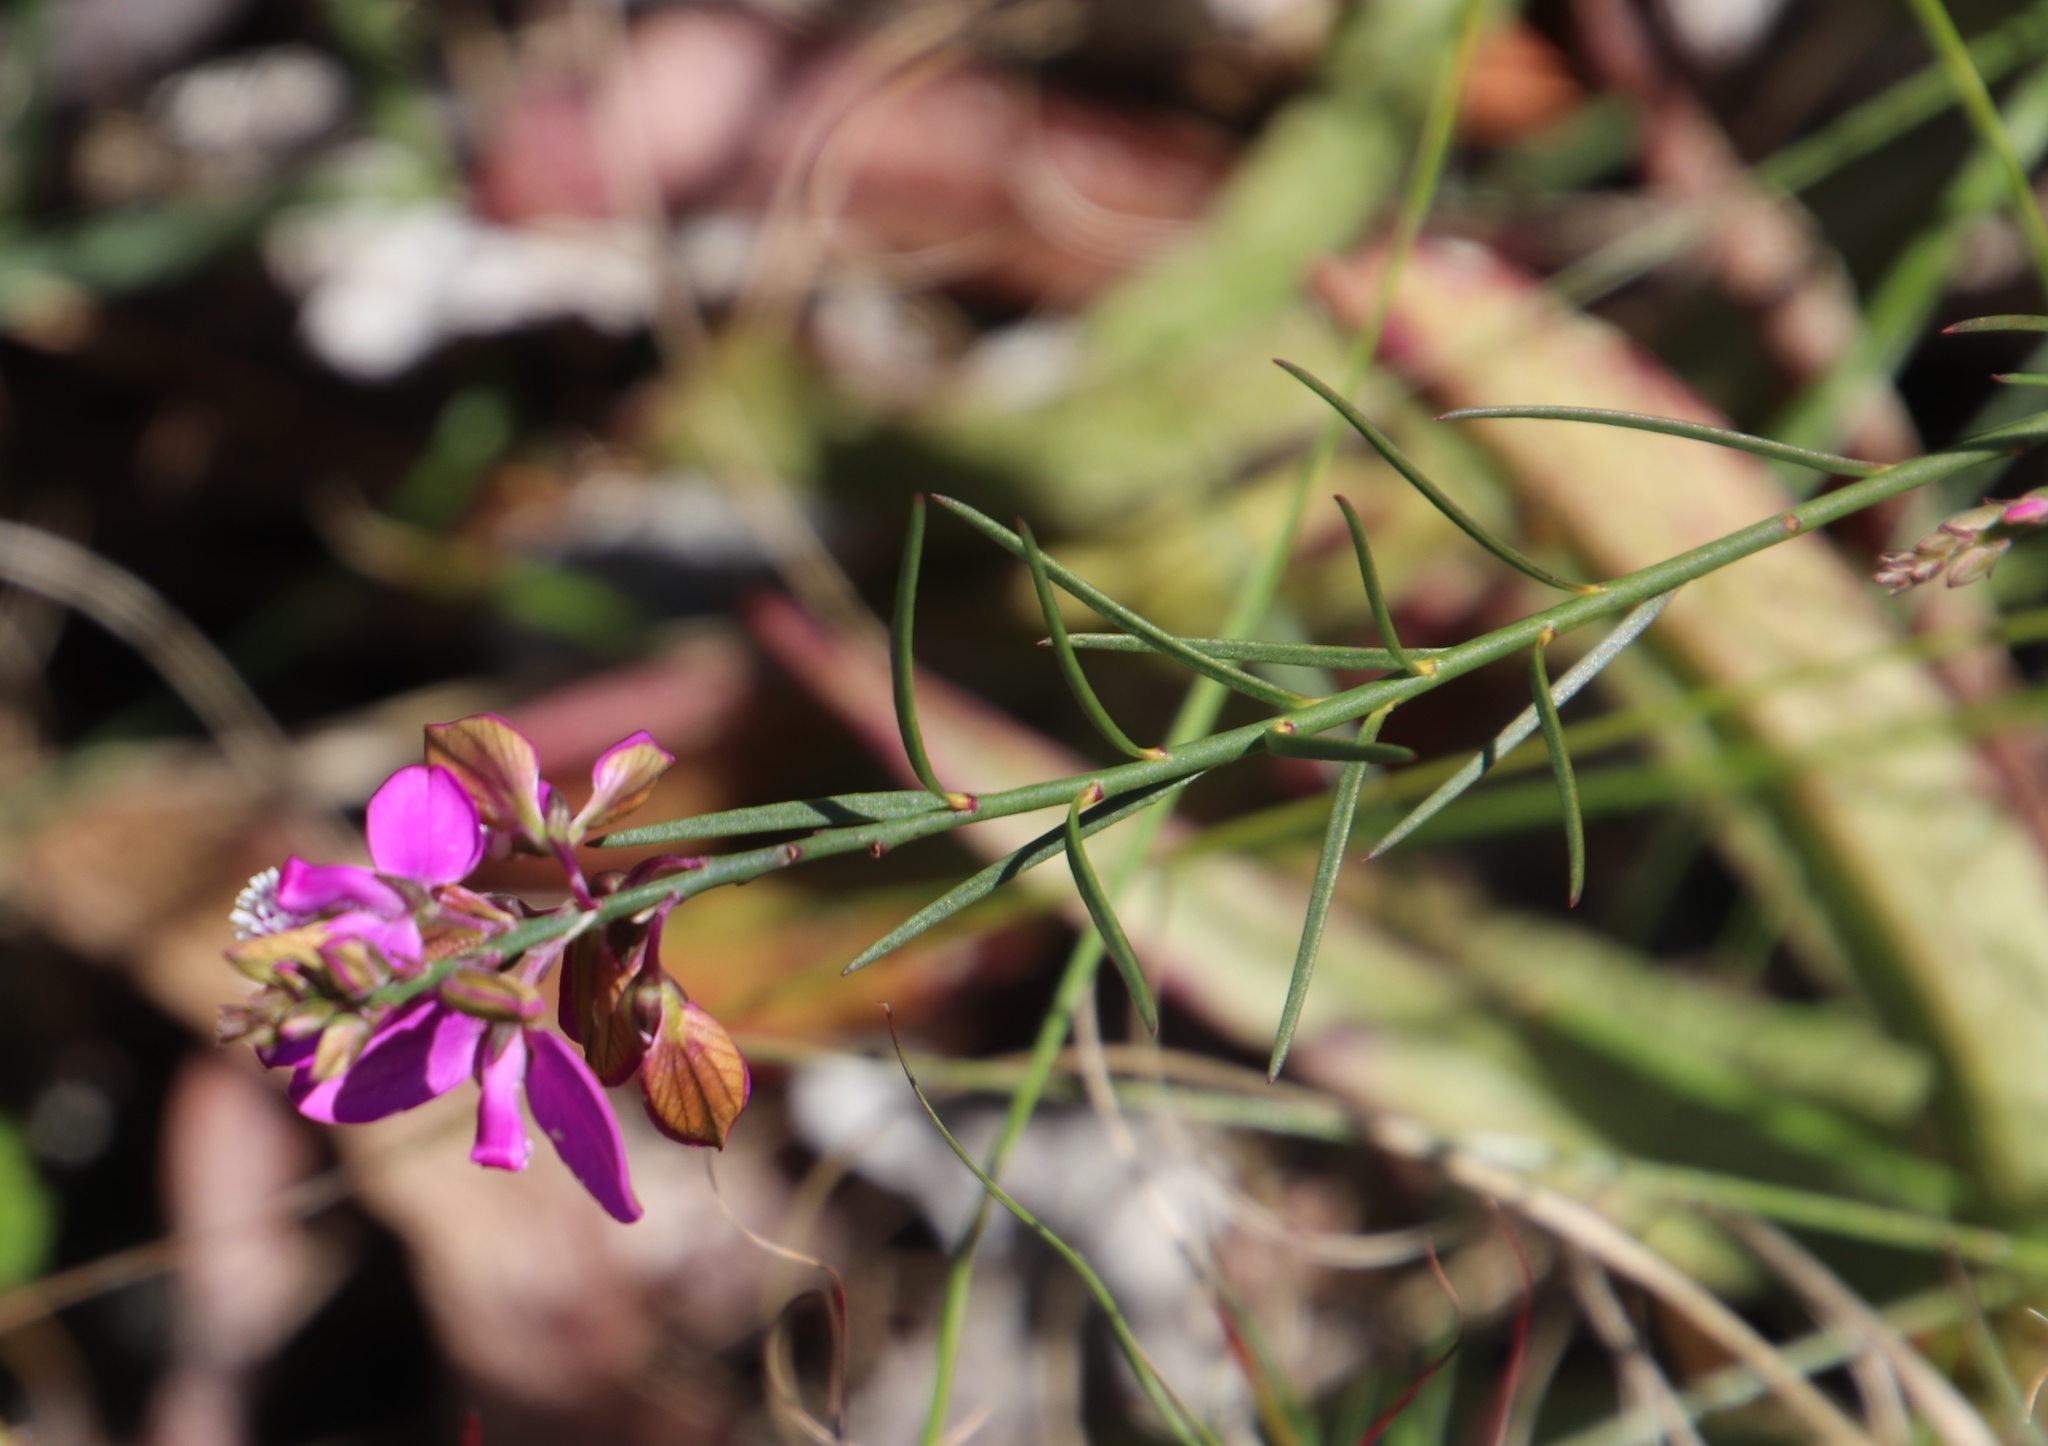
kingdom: Plantae
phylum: Tracheophyta
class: Magnoliopsida
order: Fabales
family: Polygalaceae
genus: Polygala
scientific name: Polygala garcini
